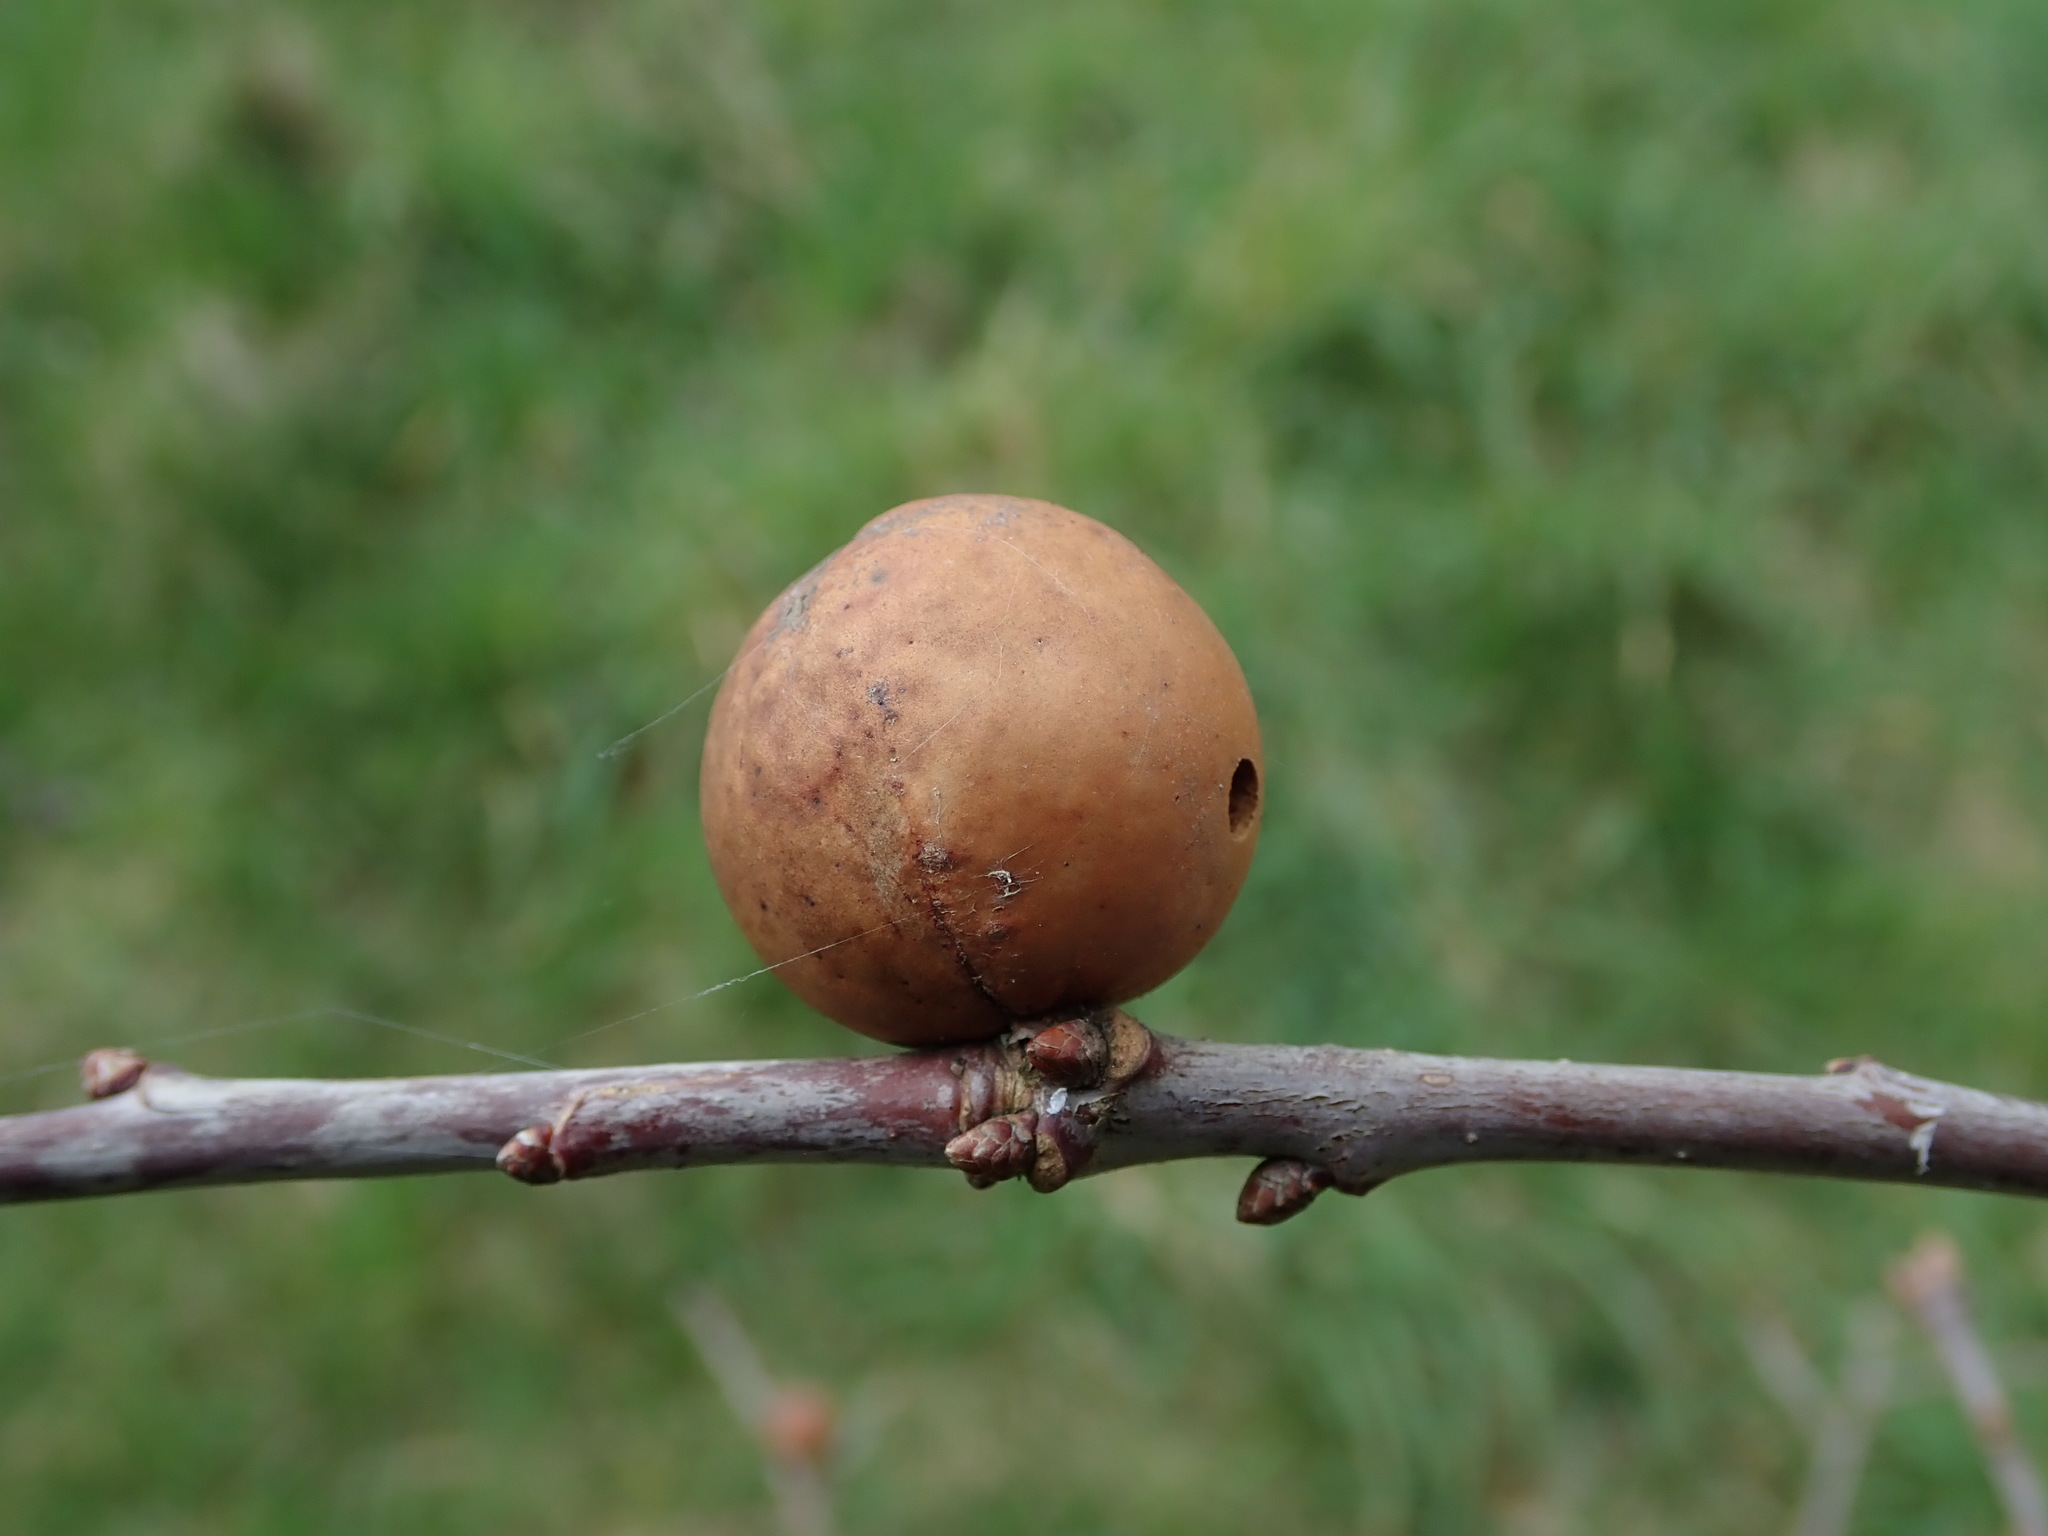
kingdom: Animalia
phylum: Arthropoda
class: Insecta
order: Hymenoptera
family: Cynipidae
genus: Andricus
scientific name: Andricus kollari
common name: Marble gall
